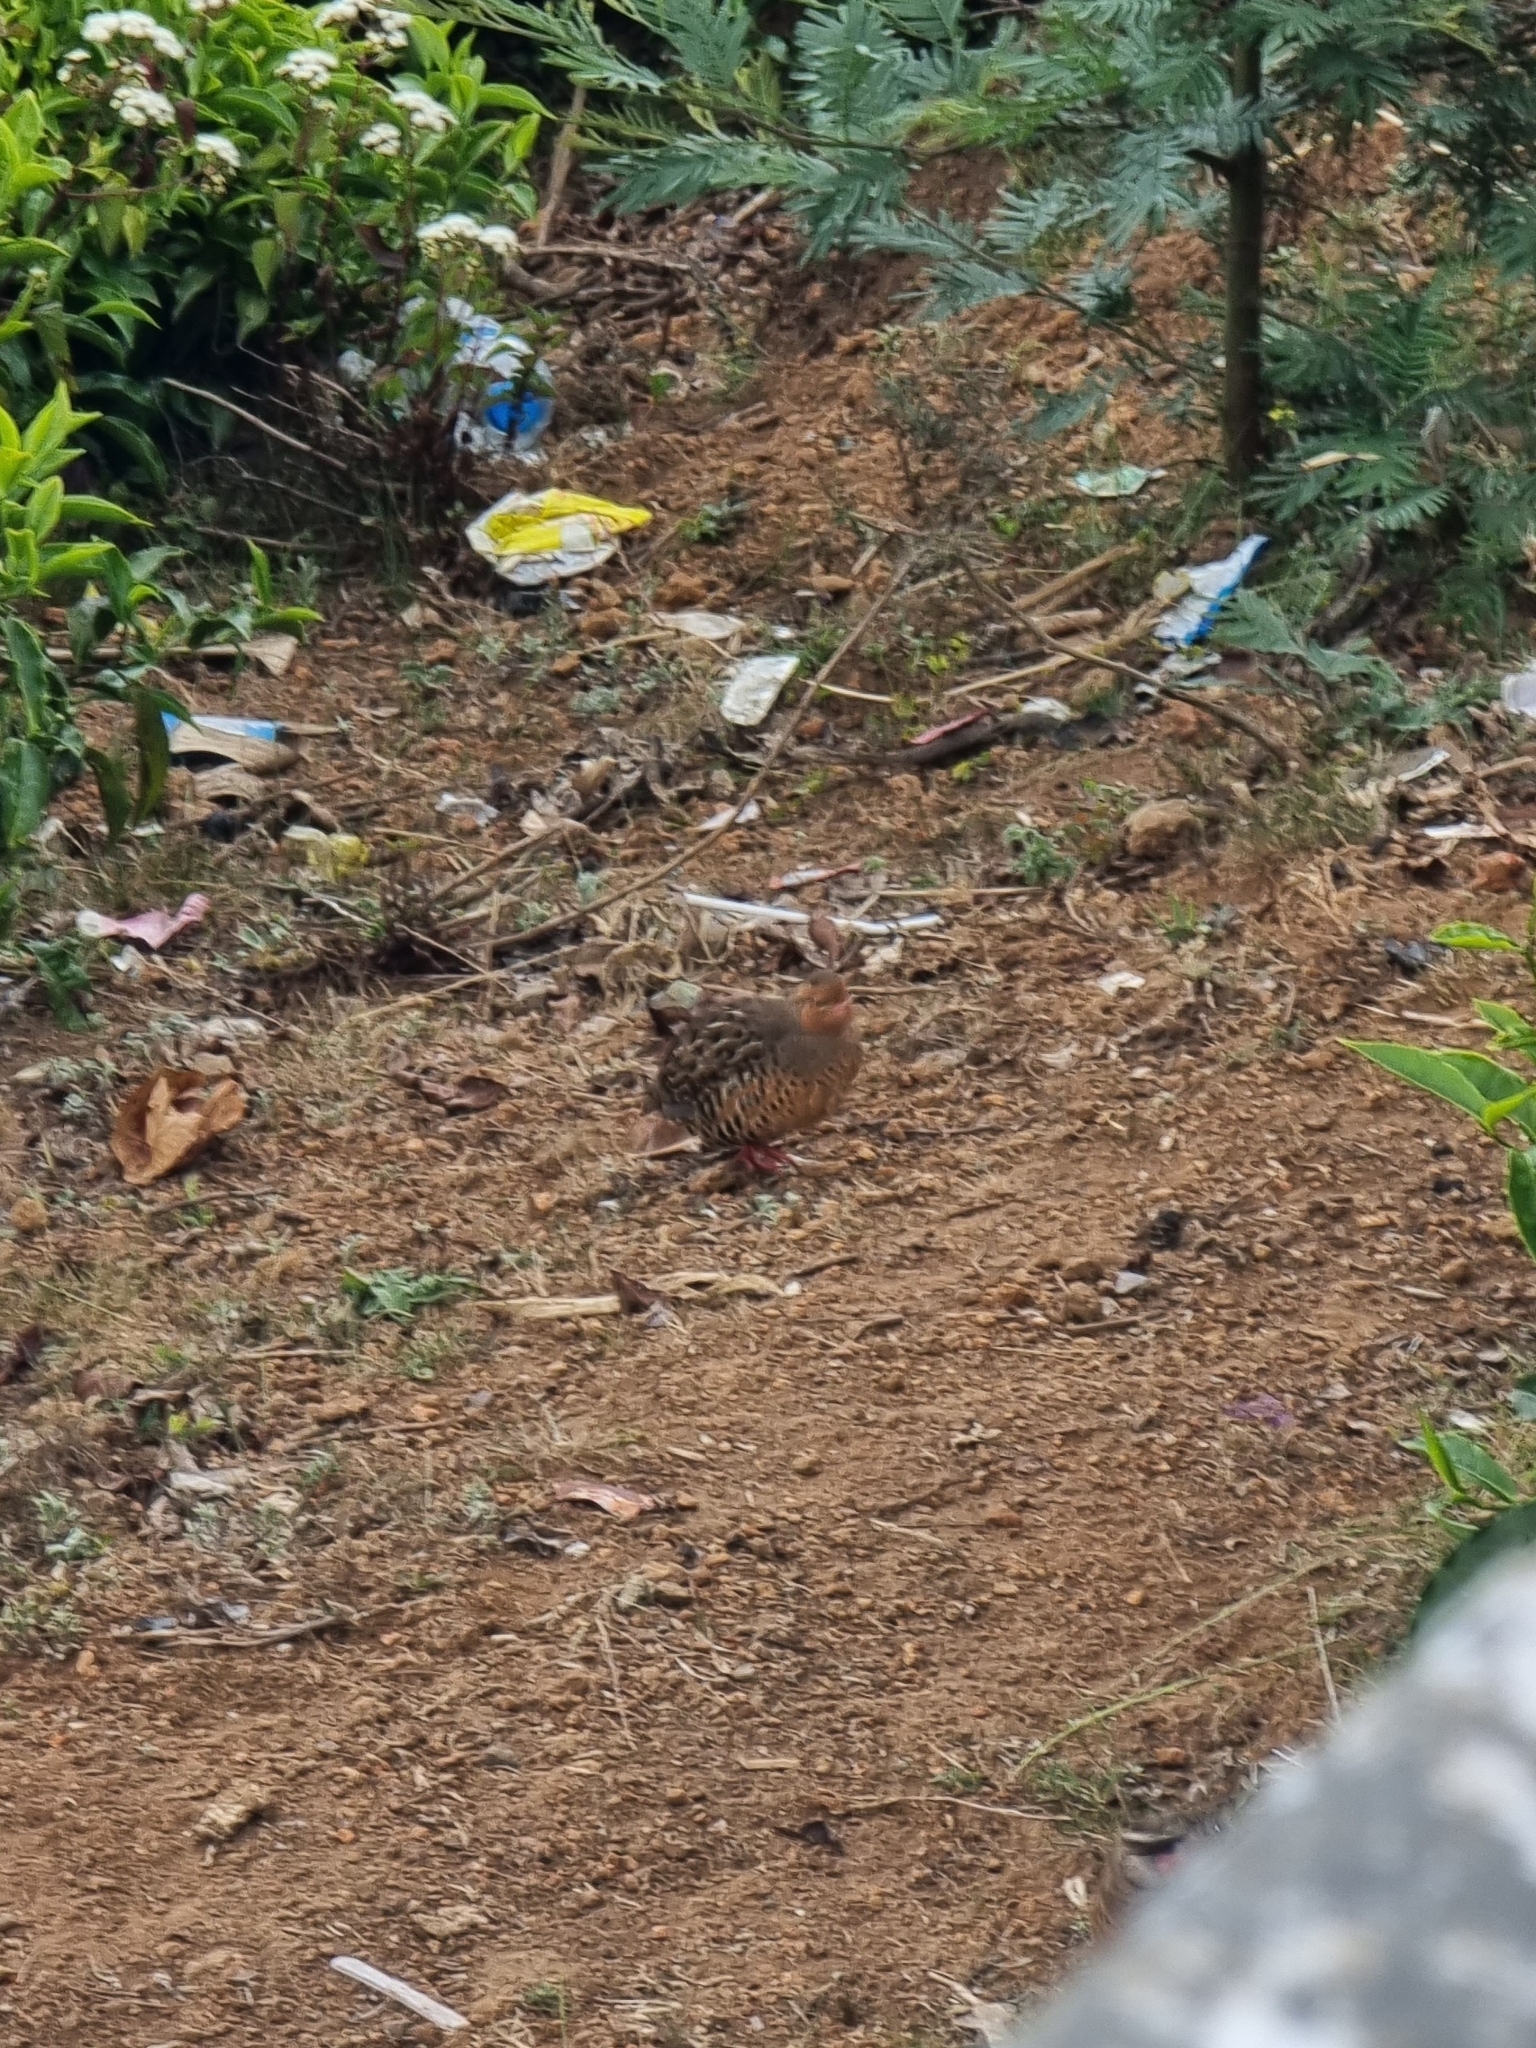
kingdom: Animalia
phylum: Chordata
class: Aves
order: Galliformes
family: Phasianidae
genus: Perdicula
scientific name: Perdicula erythrorhyncha
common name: Painted bush-quail
